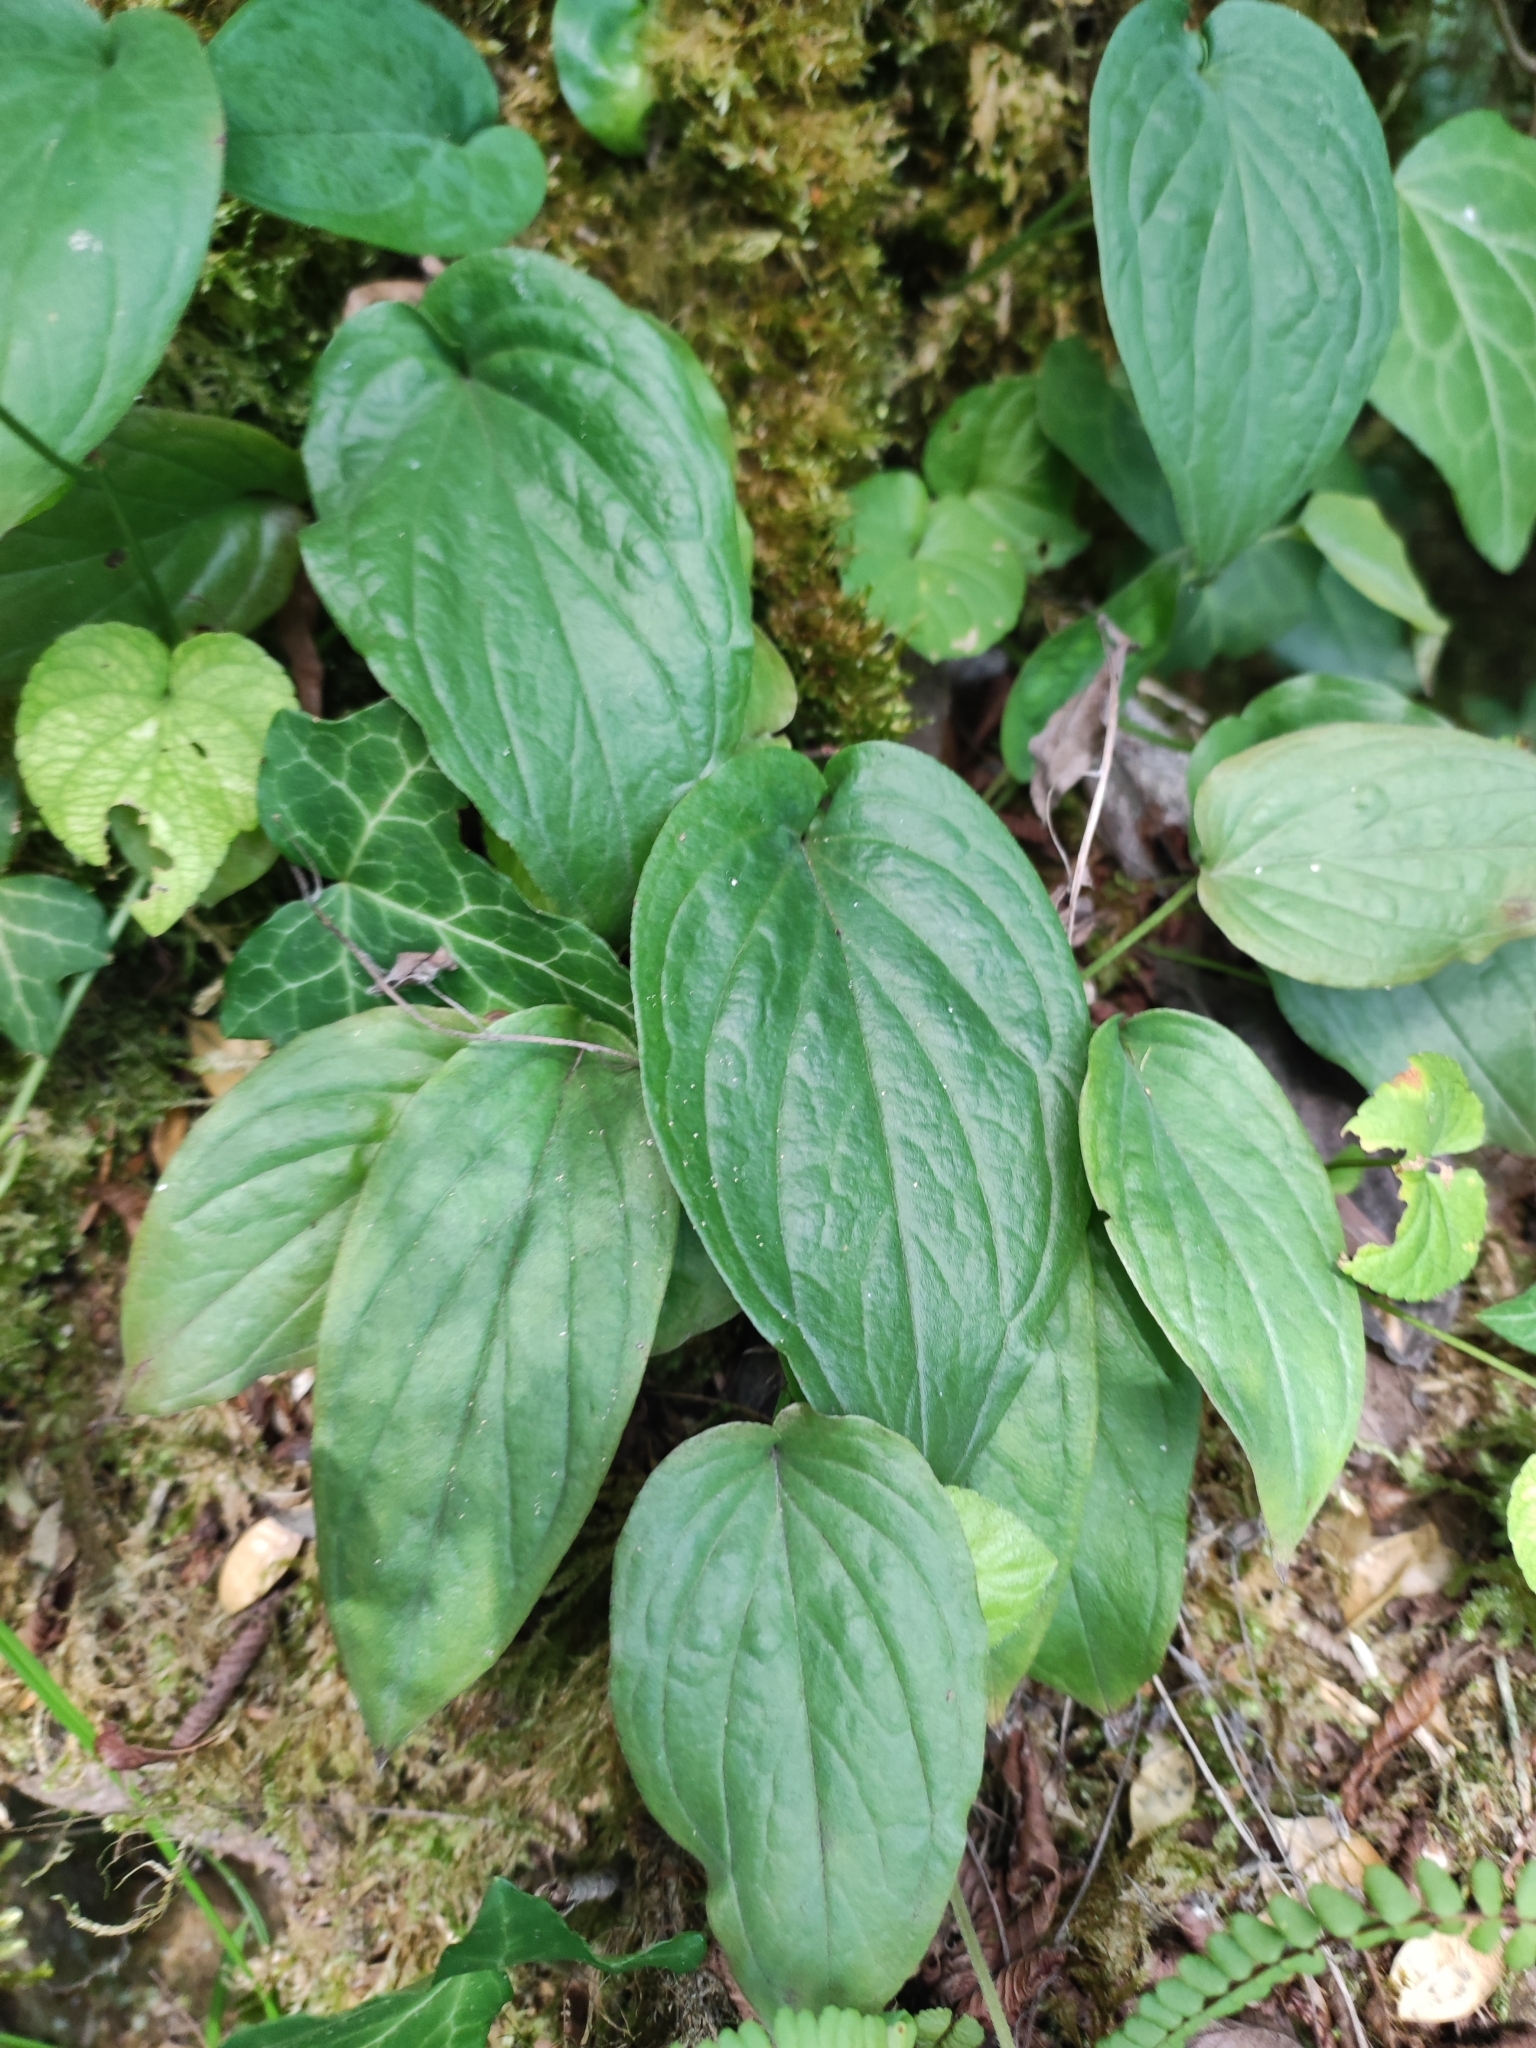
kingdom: Plantae
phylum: Tracheophyta
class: Magnoliopsida
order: Boraginales
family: Boraginaceae
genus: Omphalodes
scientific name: Omphalodes cappadocica
